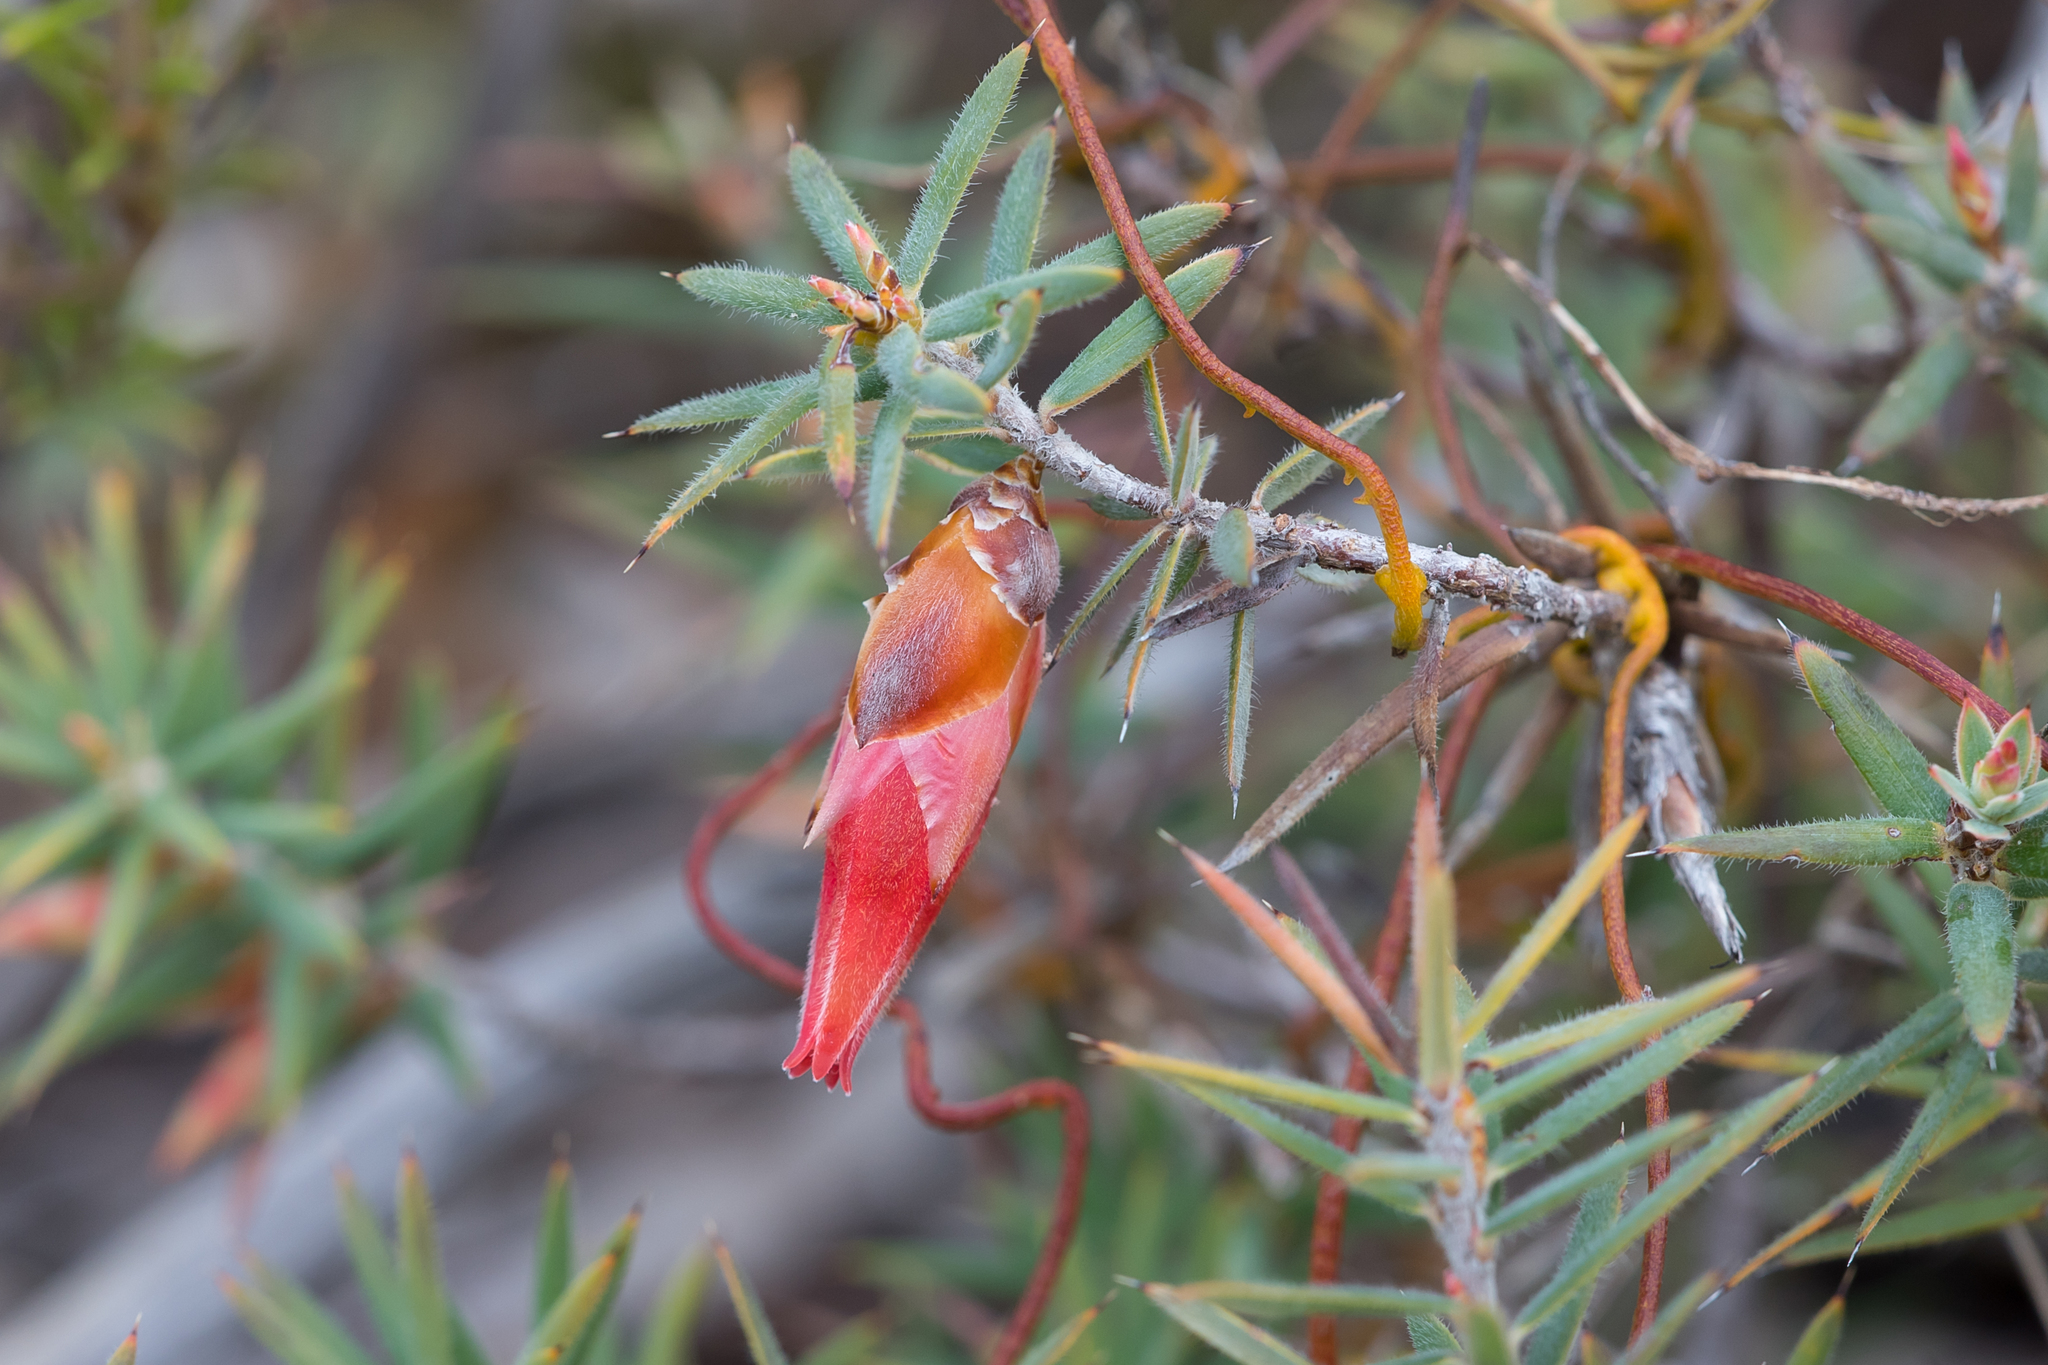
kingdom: Plantae
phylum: Tracheophyta
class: Magnoliopsida
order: Ericales
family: Ericaceae
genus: Stenanthera
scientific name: Stenanthera conostephioides
